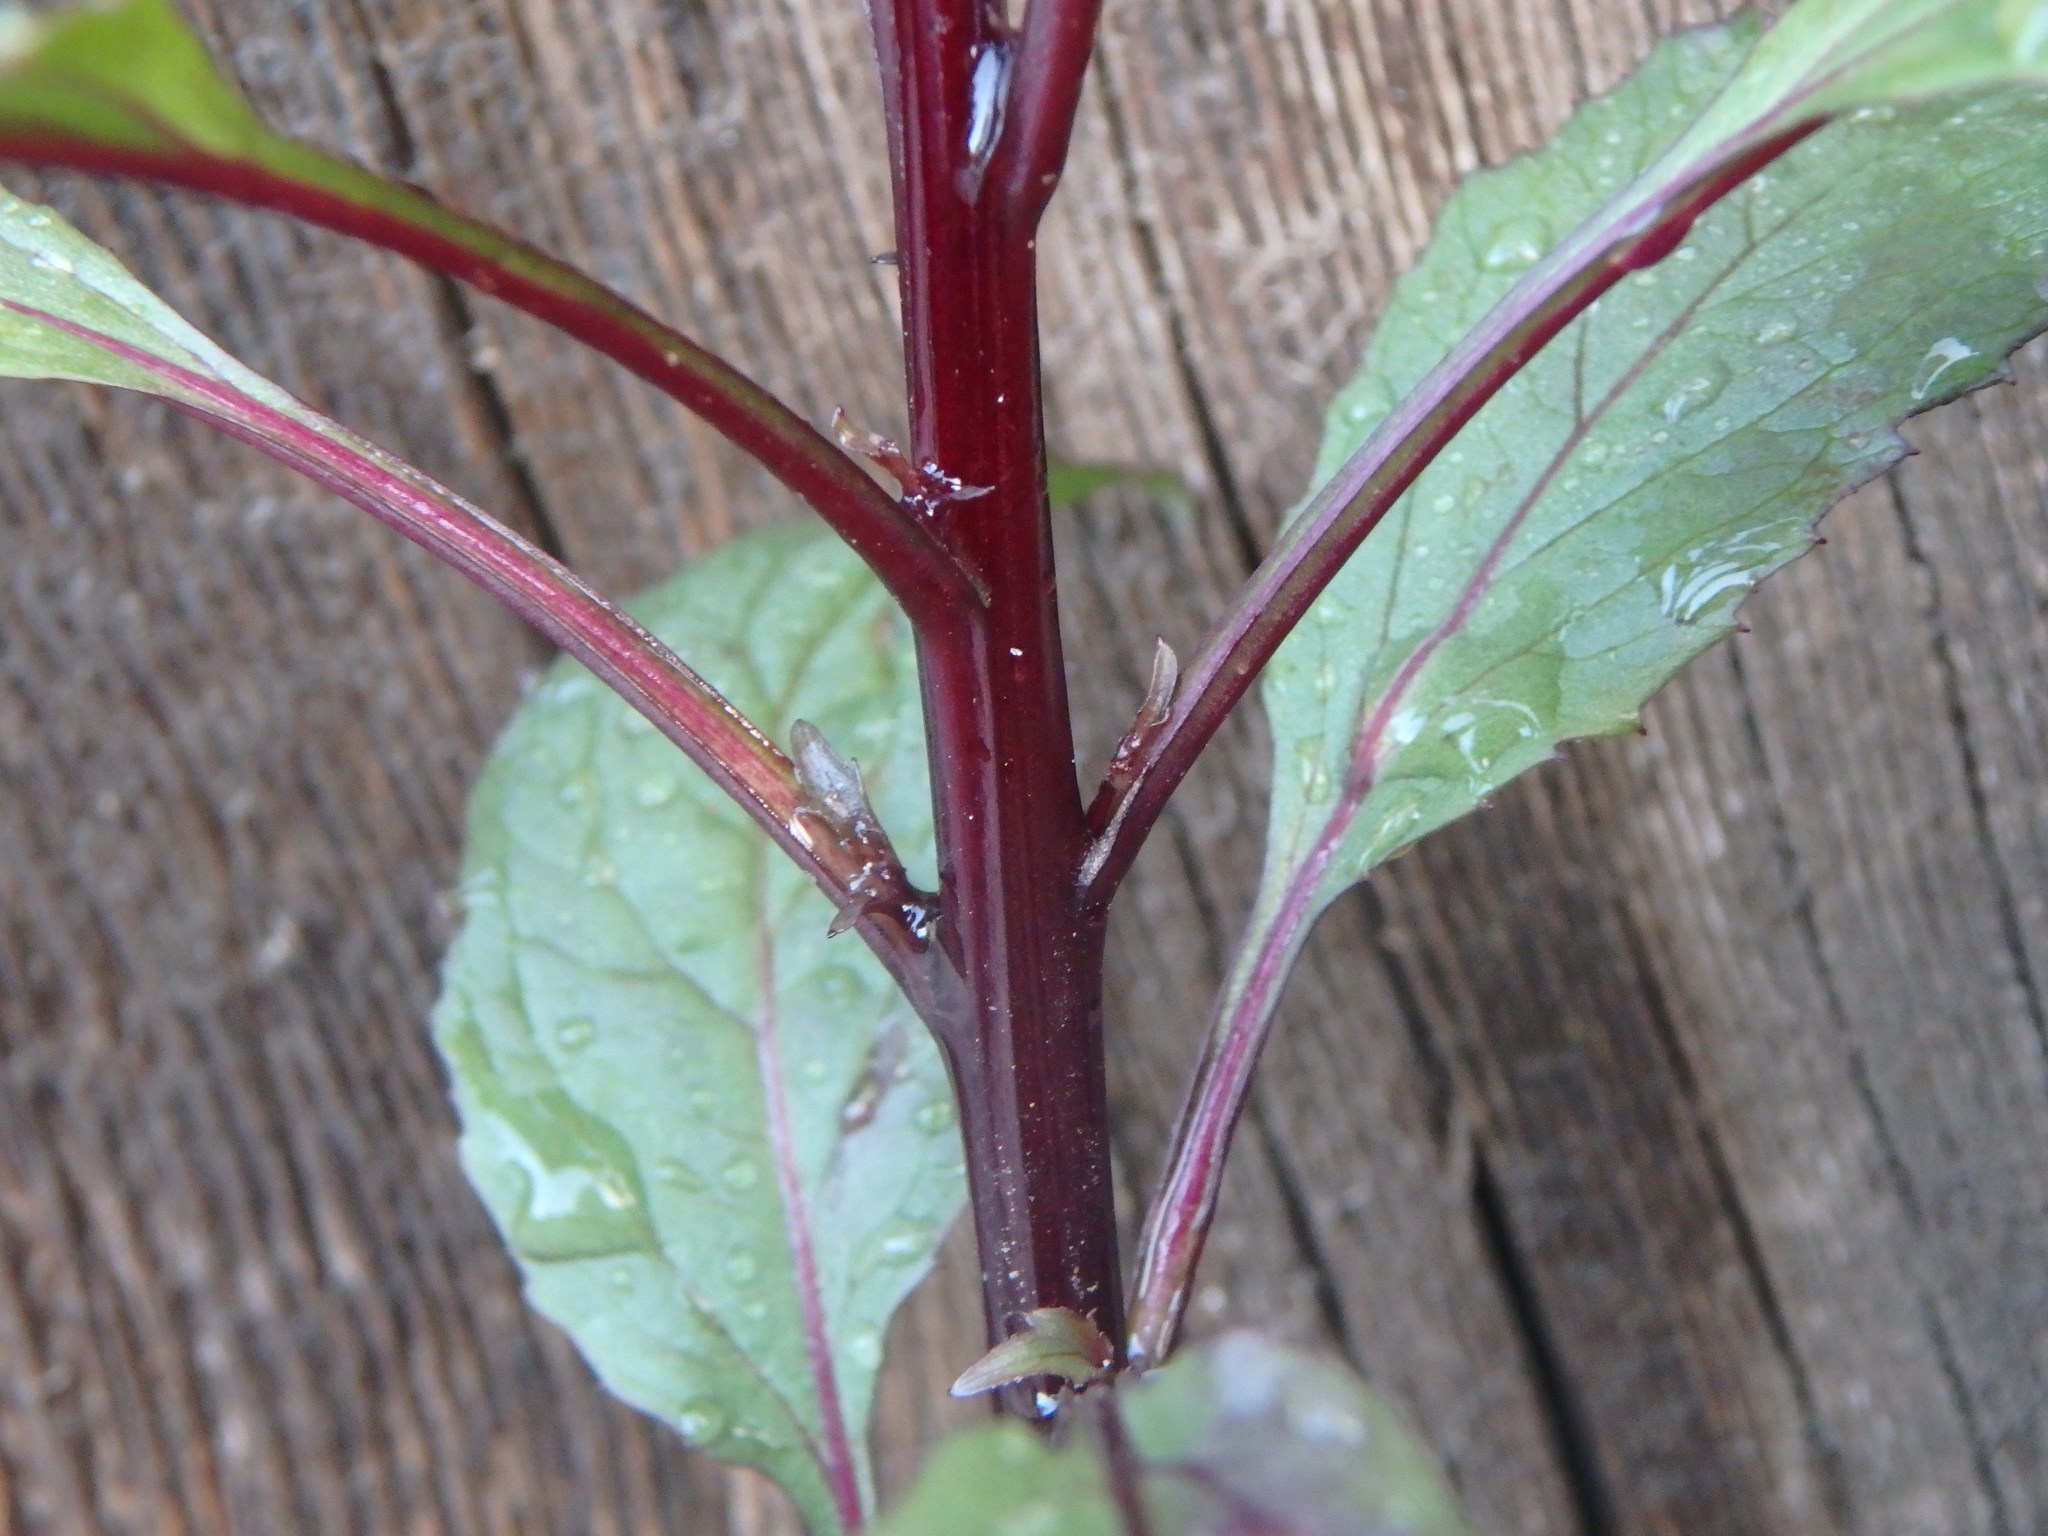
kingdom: Plantae
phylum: Tracheophyta
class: Magnoliopsida
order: Asterales
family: Campanulaceae
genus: Trachelium
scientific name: Trachelium caeruleum
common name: Throatwort
